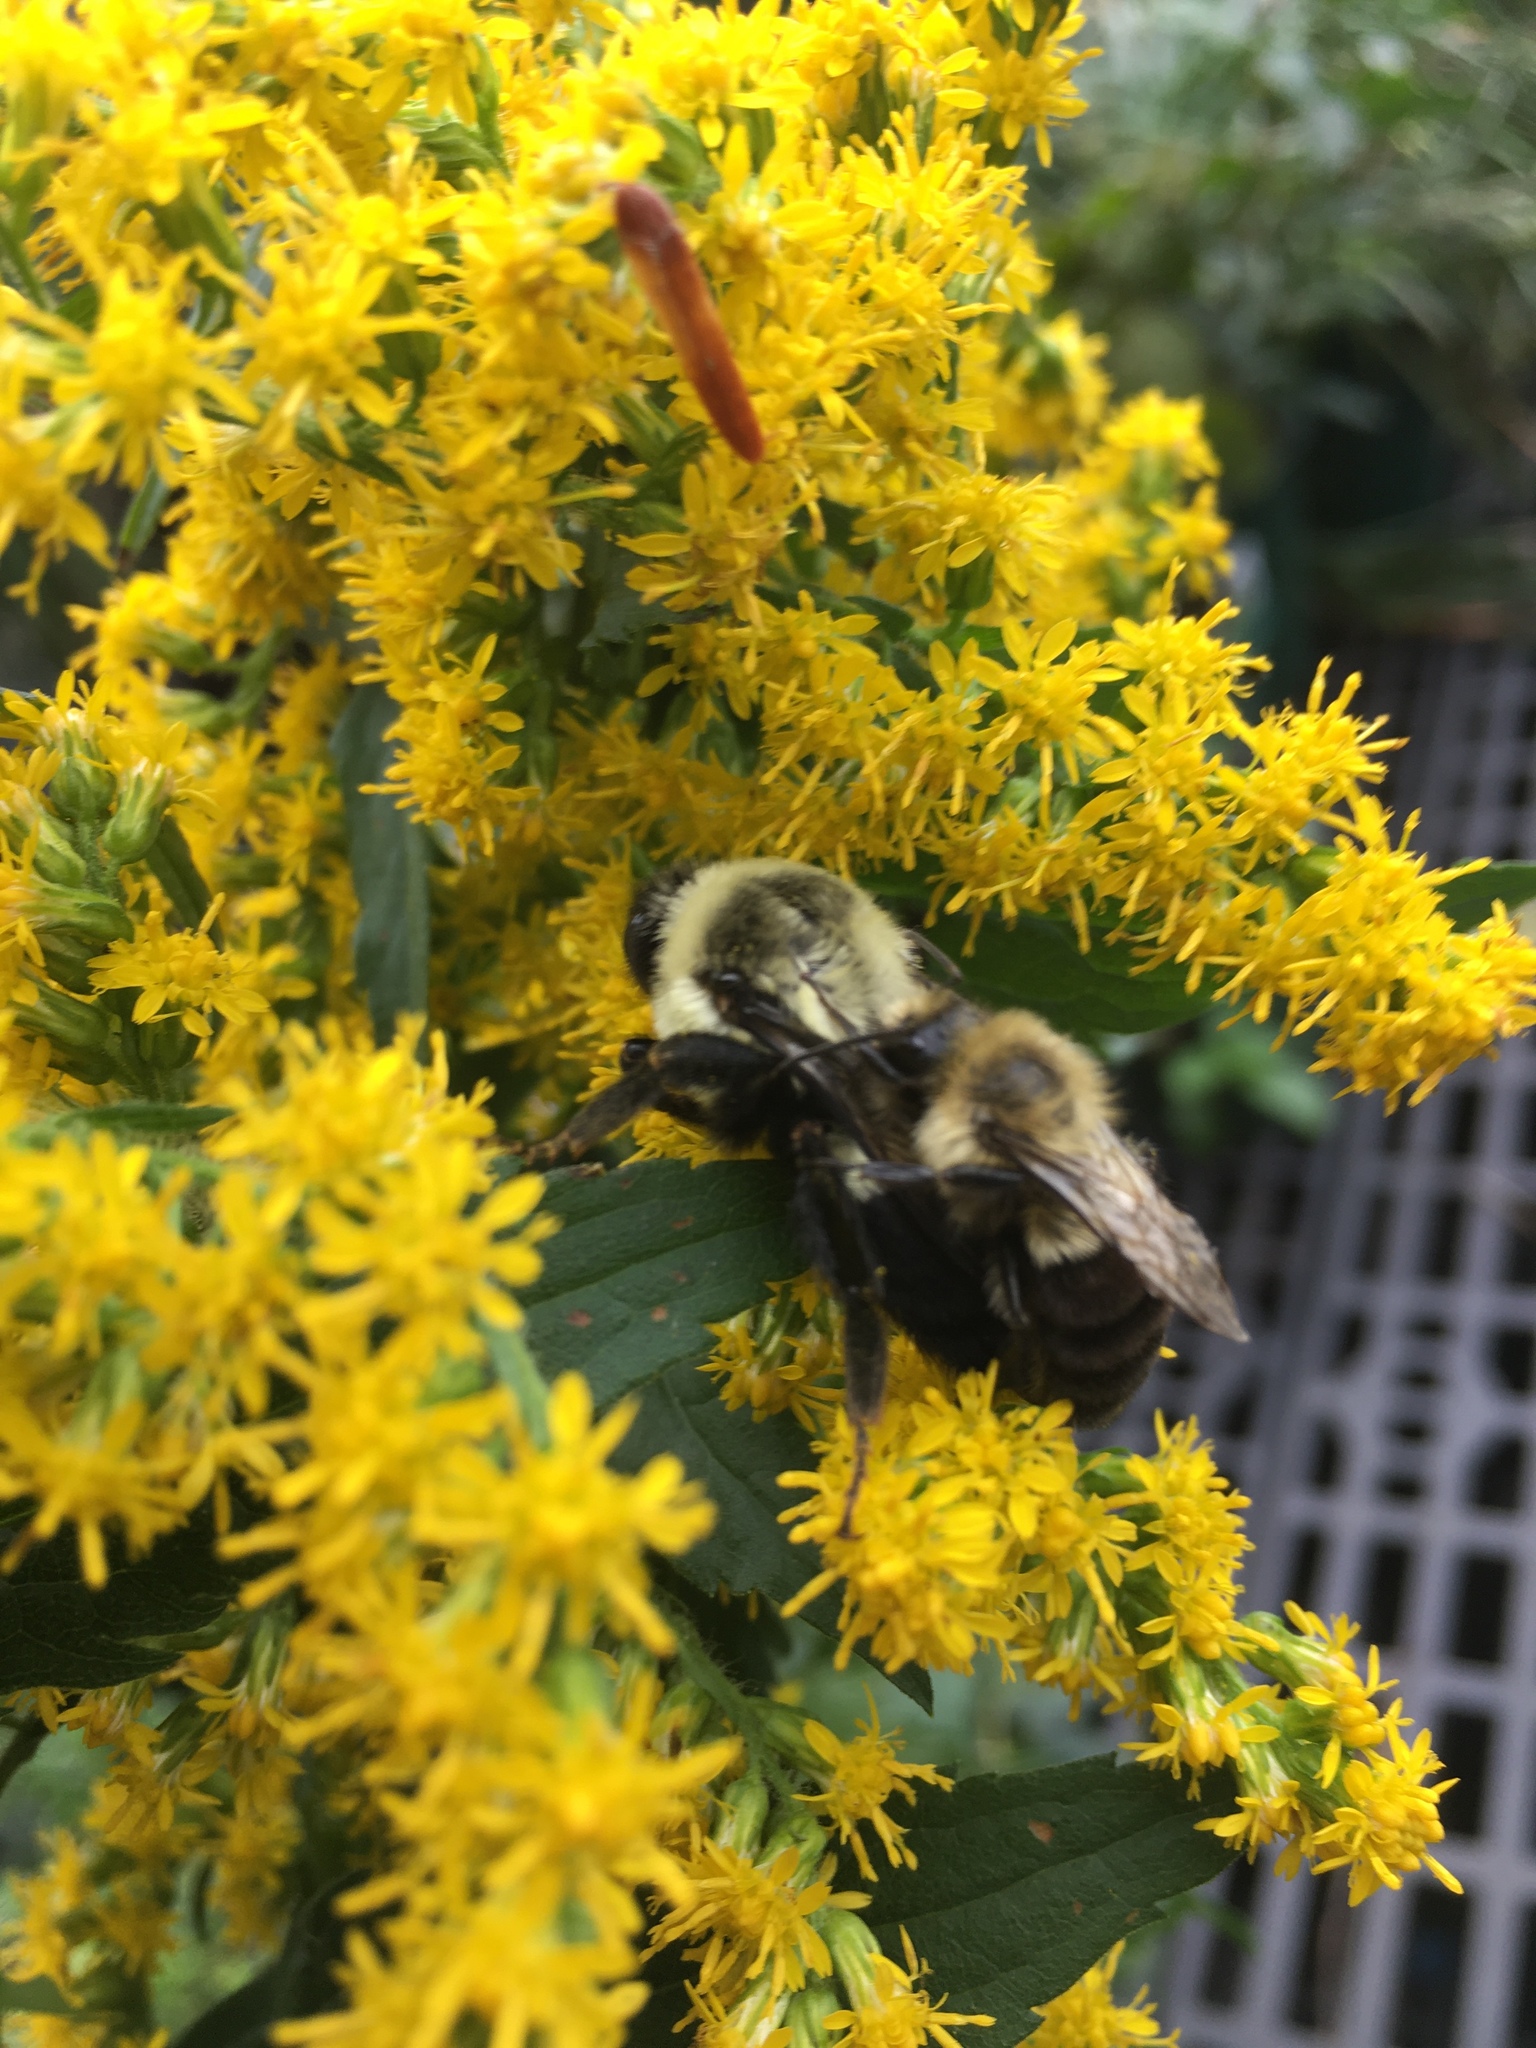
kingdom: Animalia
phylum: Arthropoda
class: Insecta
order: Hymenoptera
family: Apidae
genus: Bombus
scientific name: Bombus impatiens
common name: Common eastern bumble bee
